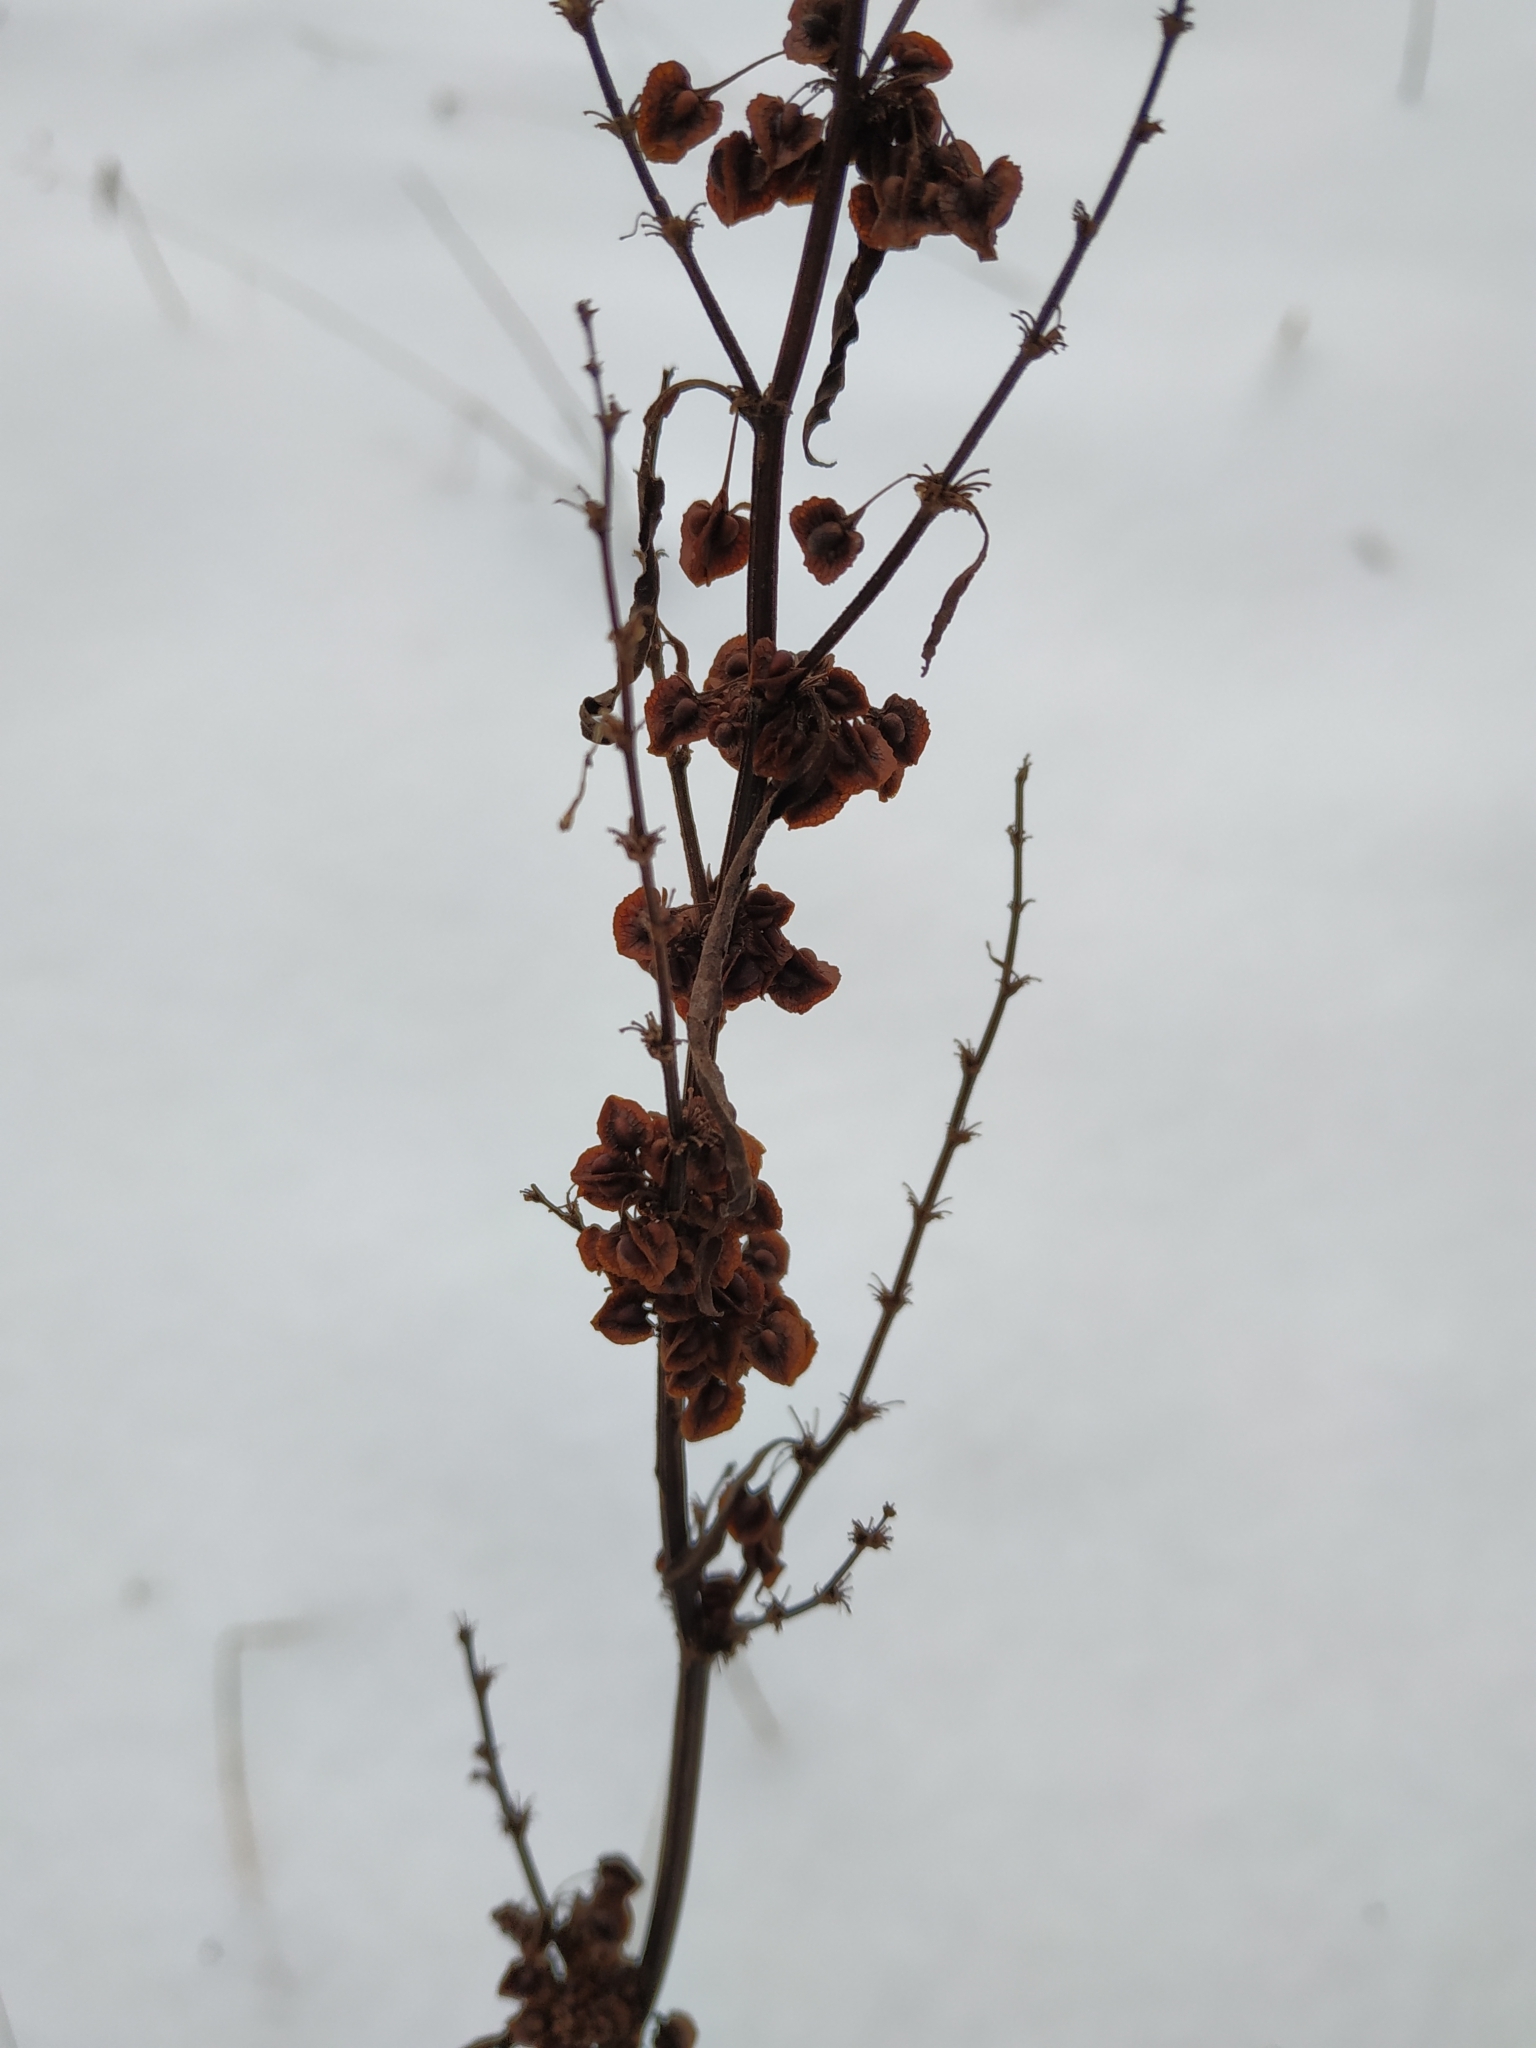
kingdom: Plantae
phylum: Tracheophyta
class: Magnoliopsida
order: Caryophyllales
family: Polygonaceae
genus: Rumex
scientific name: Rumex confertus
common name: Russian dock
